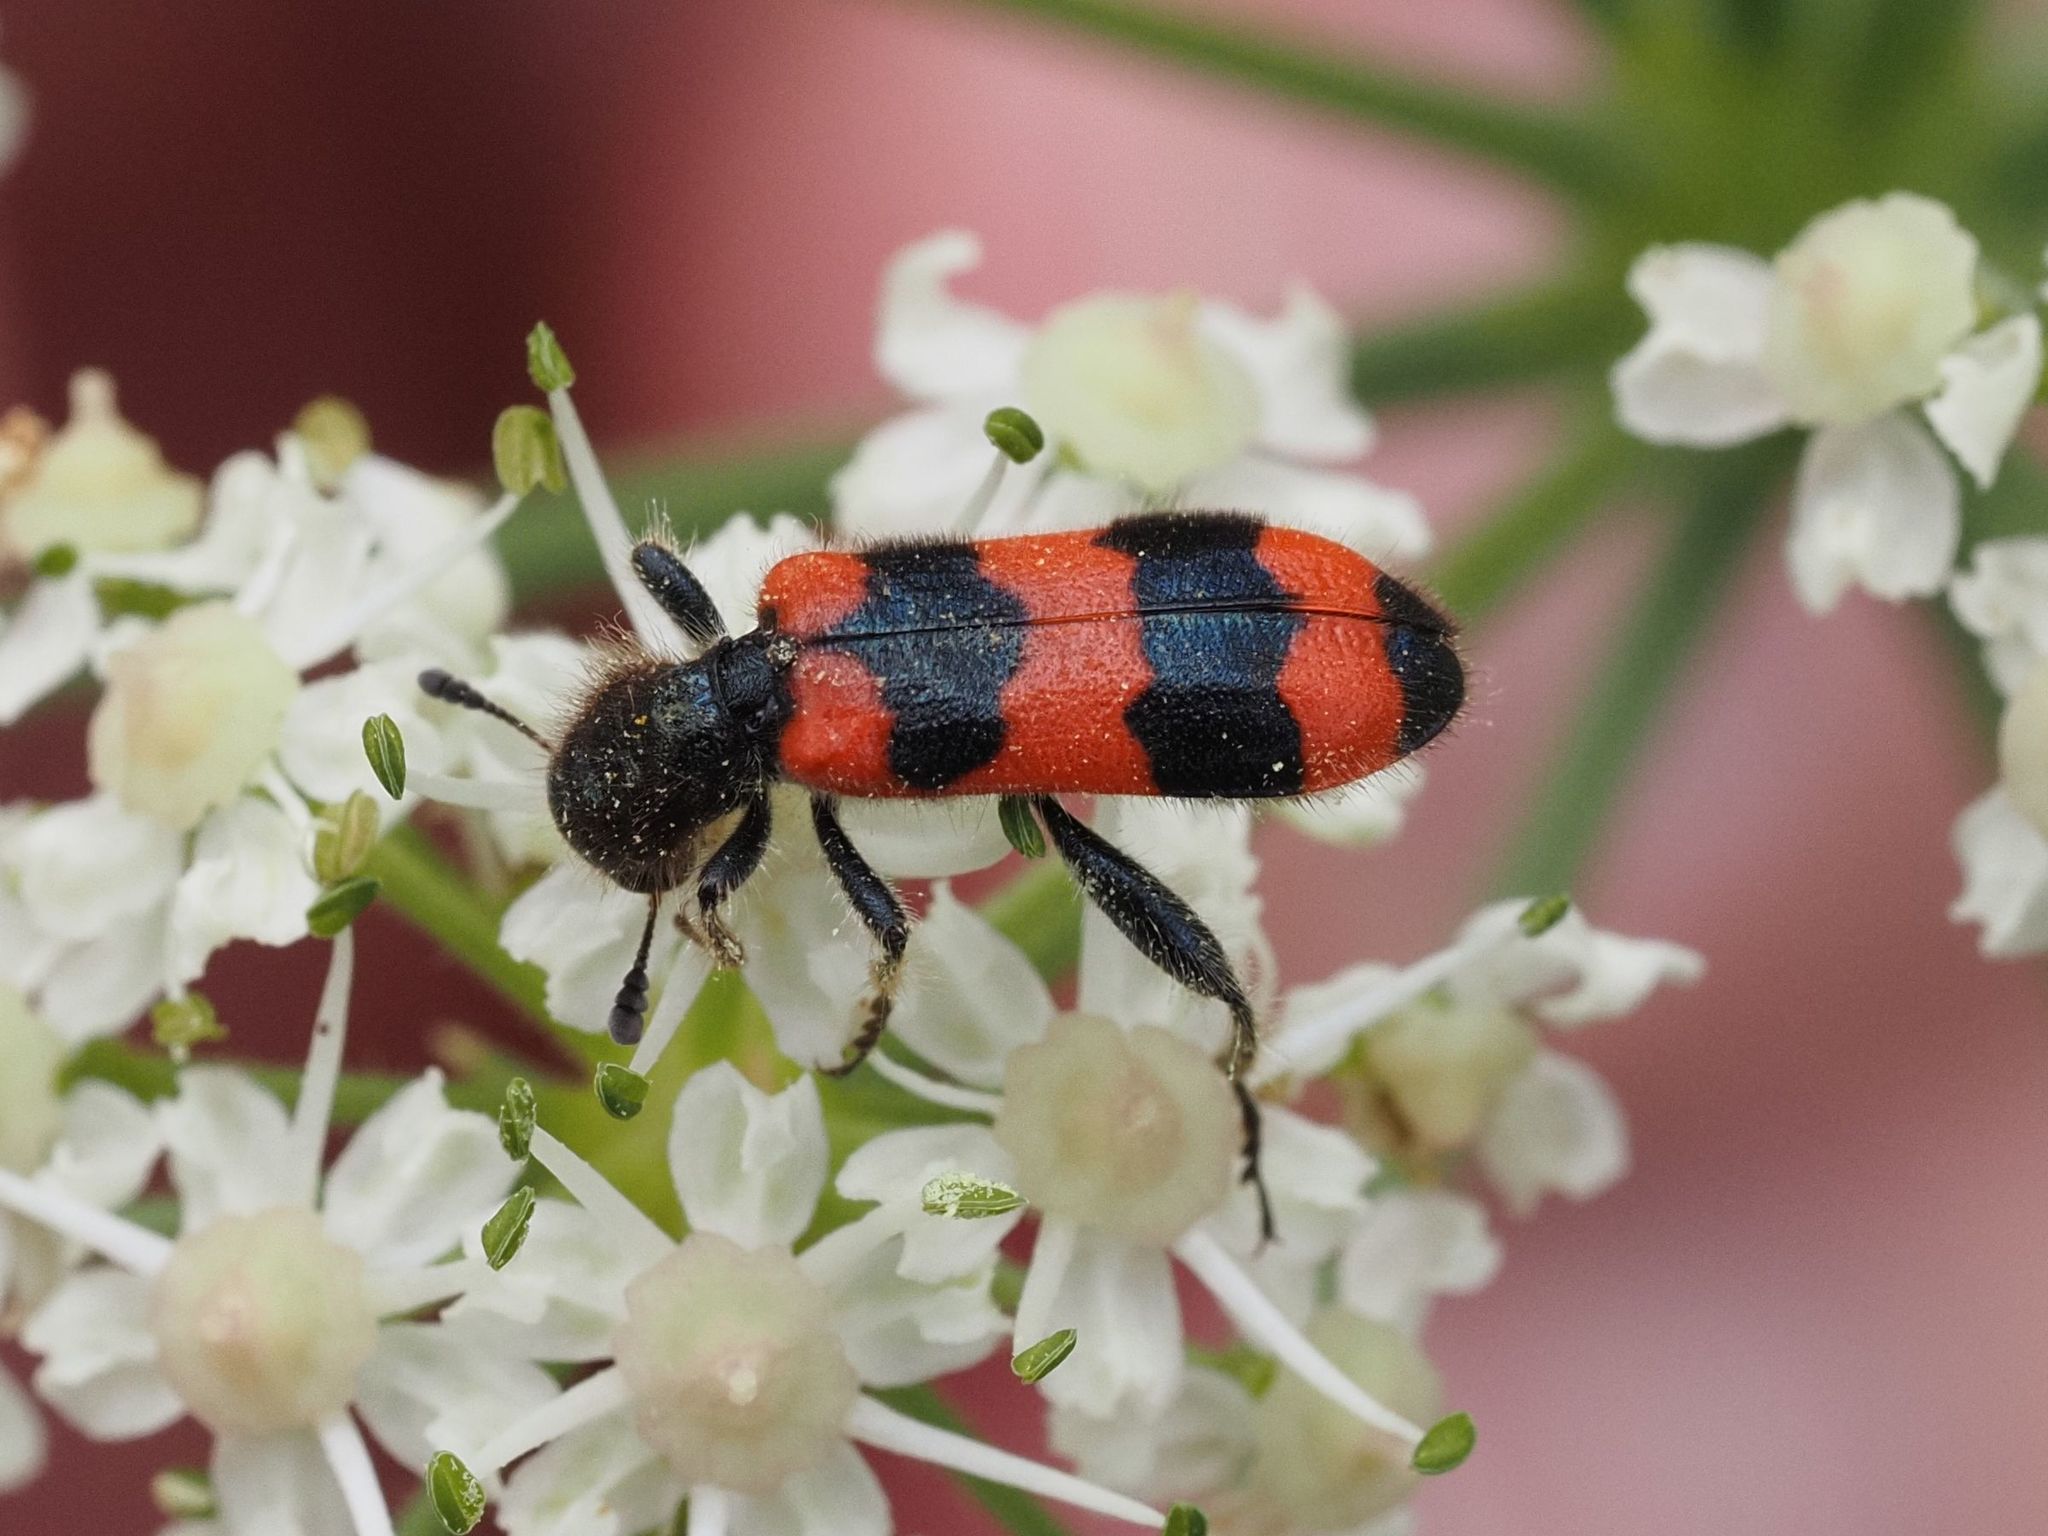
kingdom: Animalia
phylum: Arthropoda
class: Insecta
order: Coleoptera
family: Cleridae
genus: Trichodes
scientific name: Trichodes apiarius
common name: Bee-eating beetle
